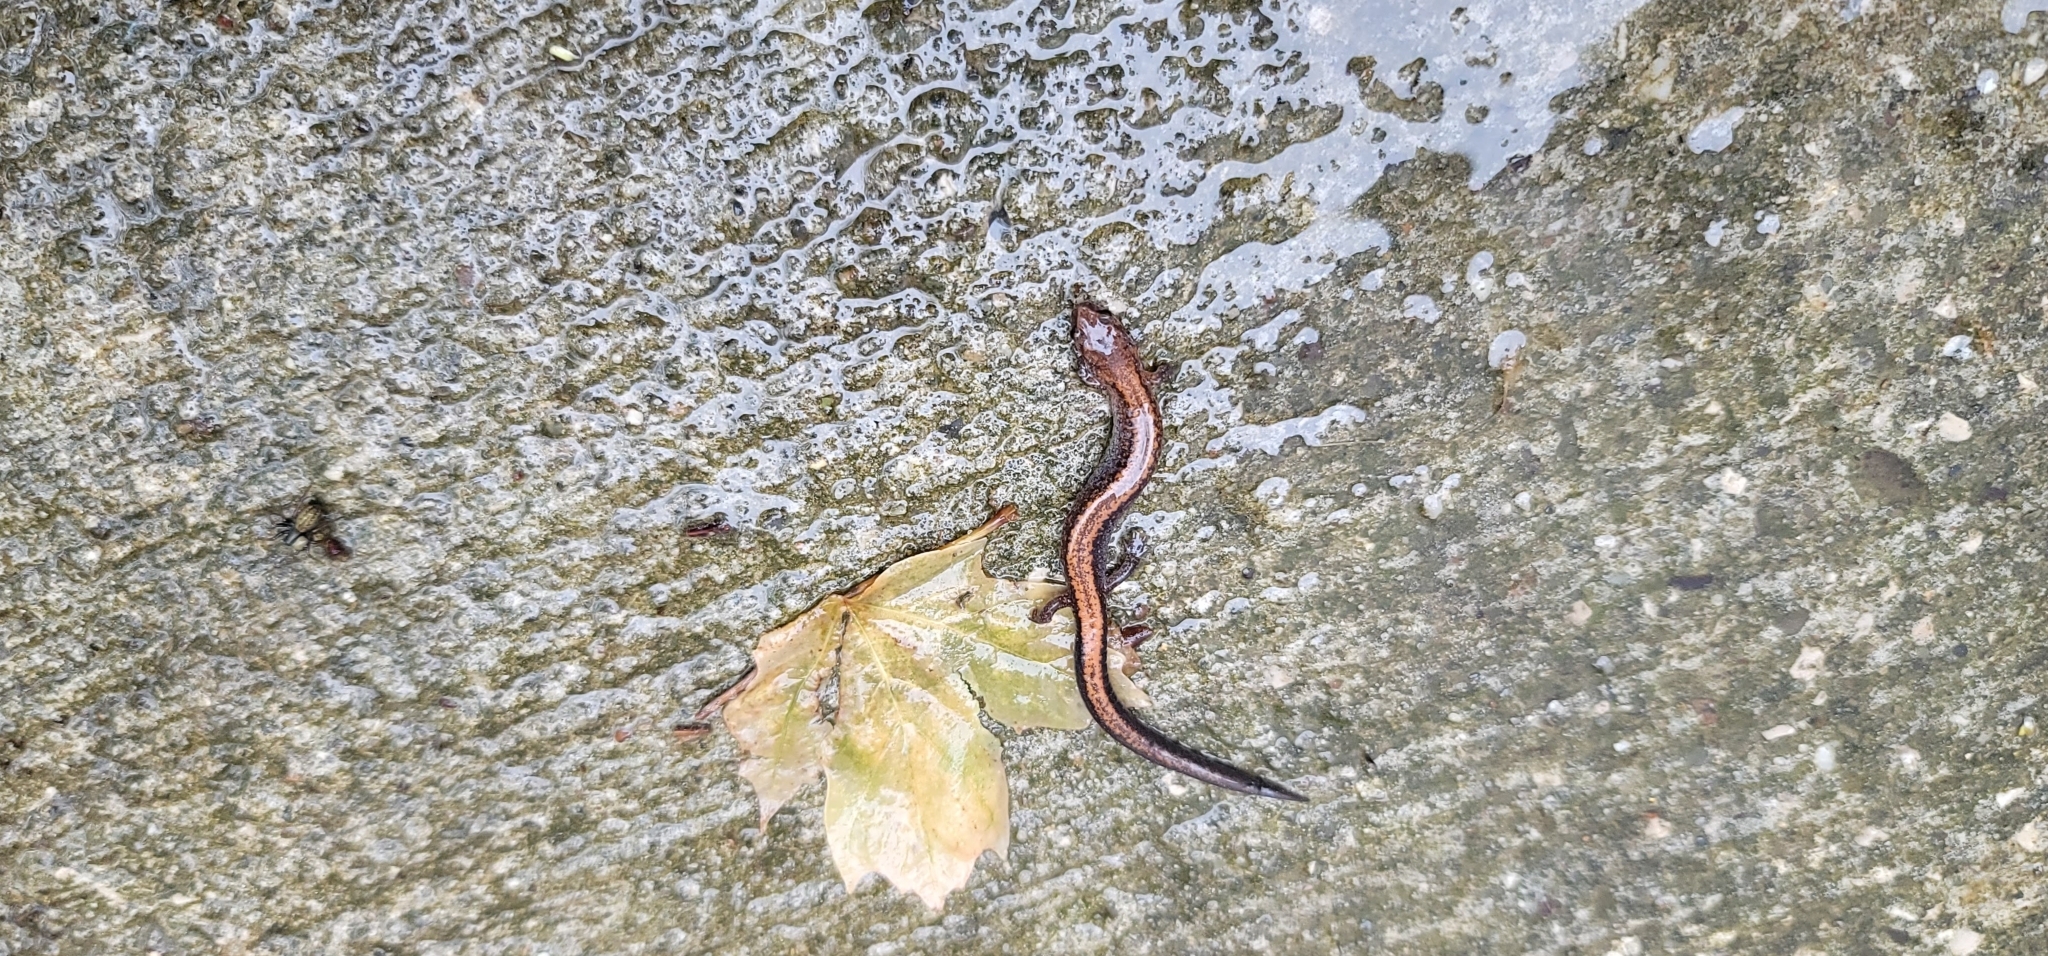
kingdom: Animalia
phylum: Chordata
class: Amphibia
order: Caudata
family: Plethodontidae
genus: Plethodon
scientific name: Plethodon cinereus
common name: Redback salamander
